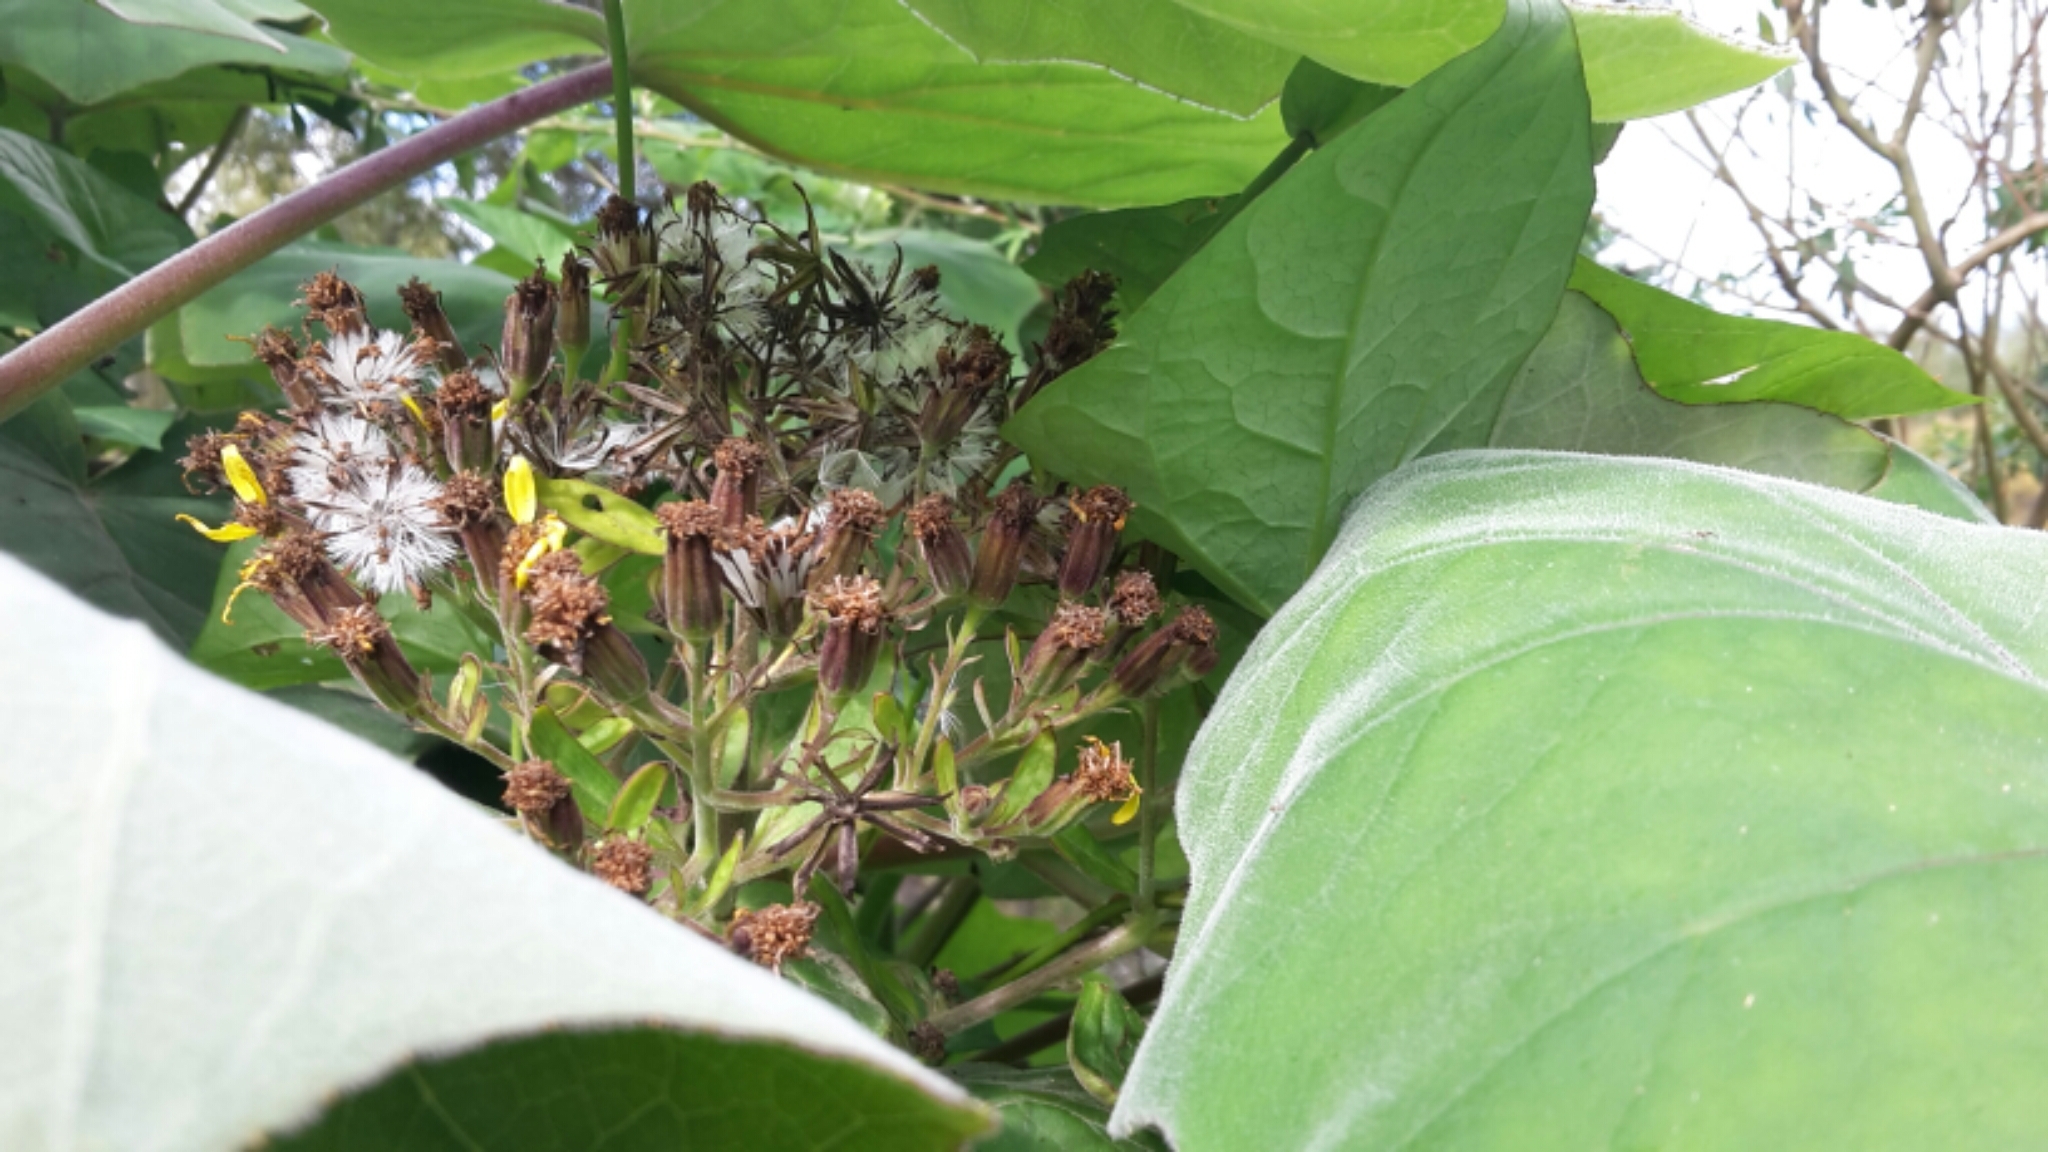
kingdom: Plantae
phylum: Tracheophyta
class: Magnoliopsida
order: Asterales
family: Asteraceae
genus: Roldana
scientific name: Roldana petasitis
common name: California-geranium
